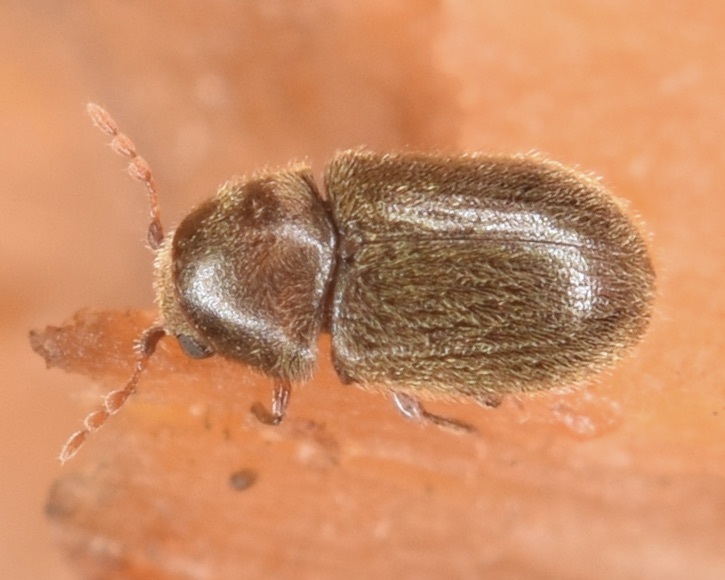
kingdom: Animalia
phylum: Arthropoda
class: Insecta
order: Coleoptera
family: Anobiidae
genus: Sculptotheca
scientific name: Sculptotheca puberula
